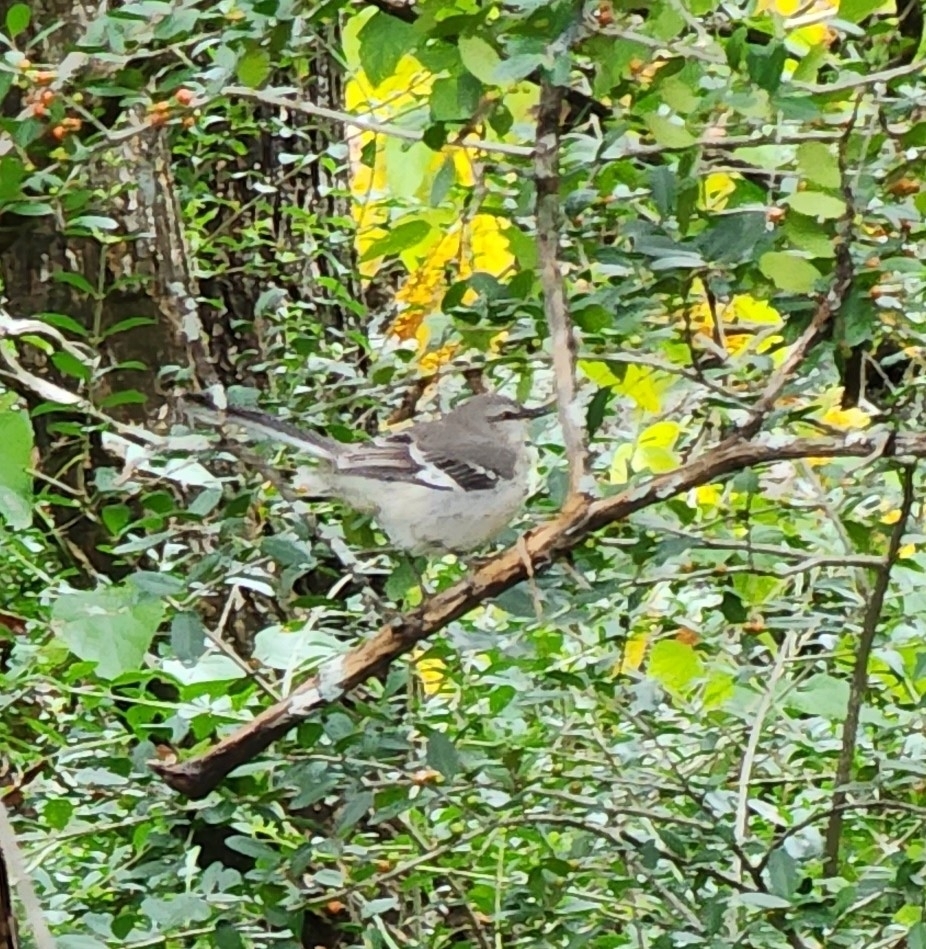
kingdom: Animalia
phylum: Chordata
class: Aves
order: Passeriformes
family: Mimidae
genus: Mimus
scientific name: Mimus polyglottos
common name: Northern mockingbird
